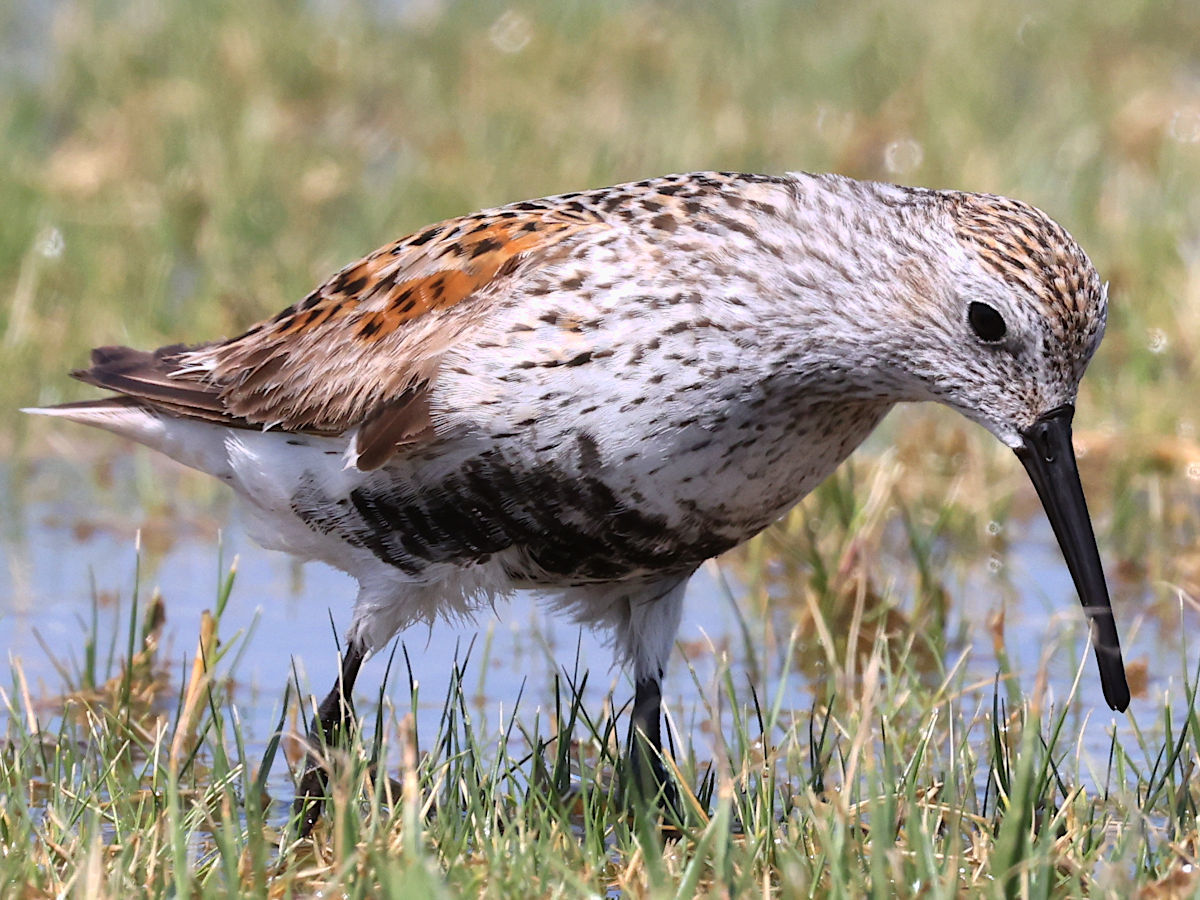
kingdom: Animalia
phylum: Chordata
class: Aves
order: Charadriiformes
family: Scolopacidae
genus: Calidris
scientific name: Calidris alpina
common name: Dunlin
